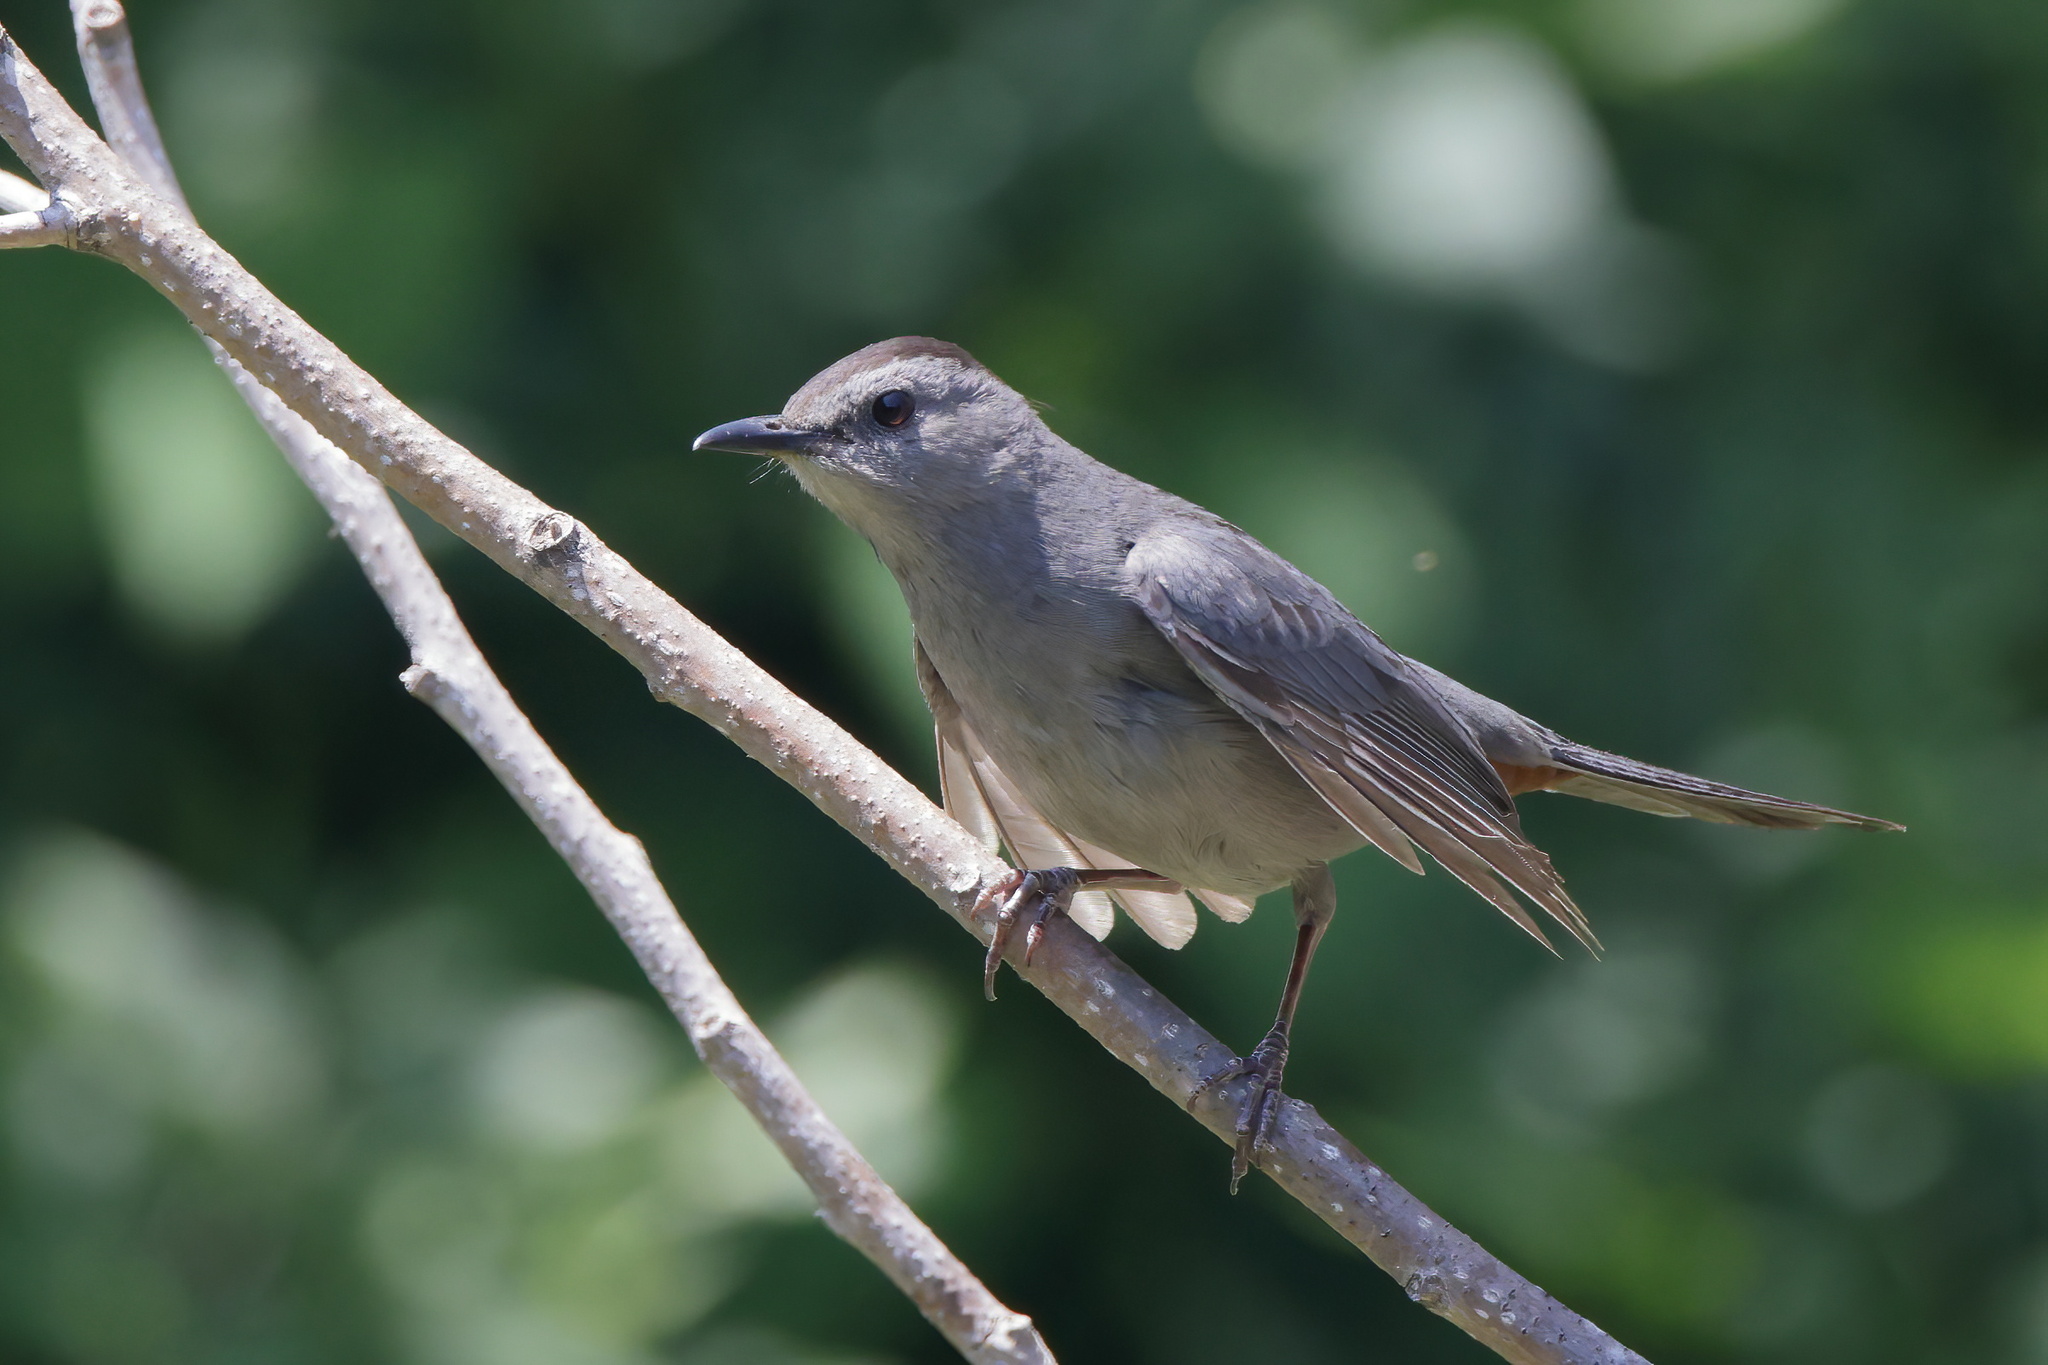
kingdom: Animalia
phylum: Chordata
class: Aves
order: Passeriformes
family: Mimidae
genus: Dumetella
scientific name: Dumetella carolinensis
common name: Gray catbird
